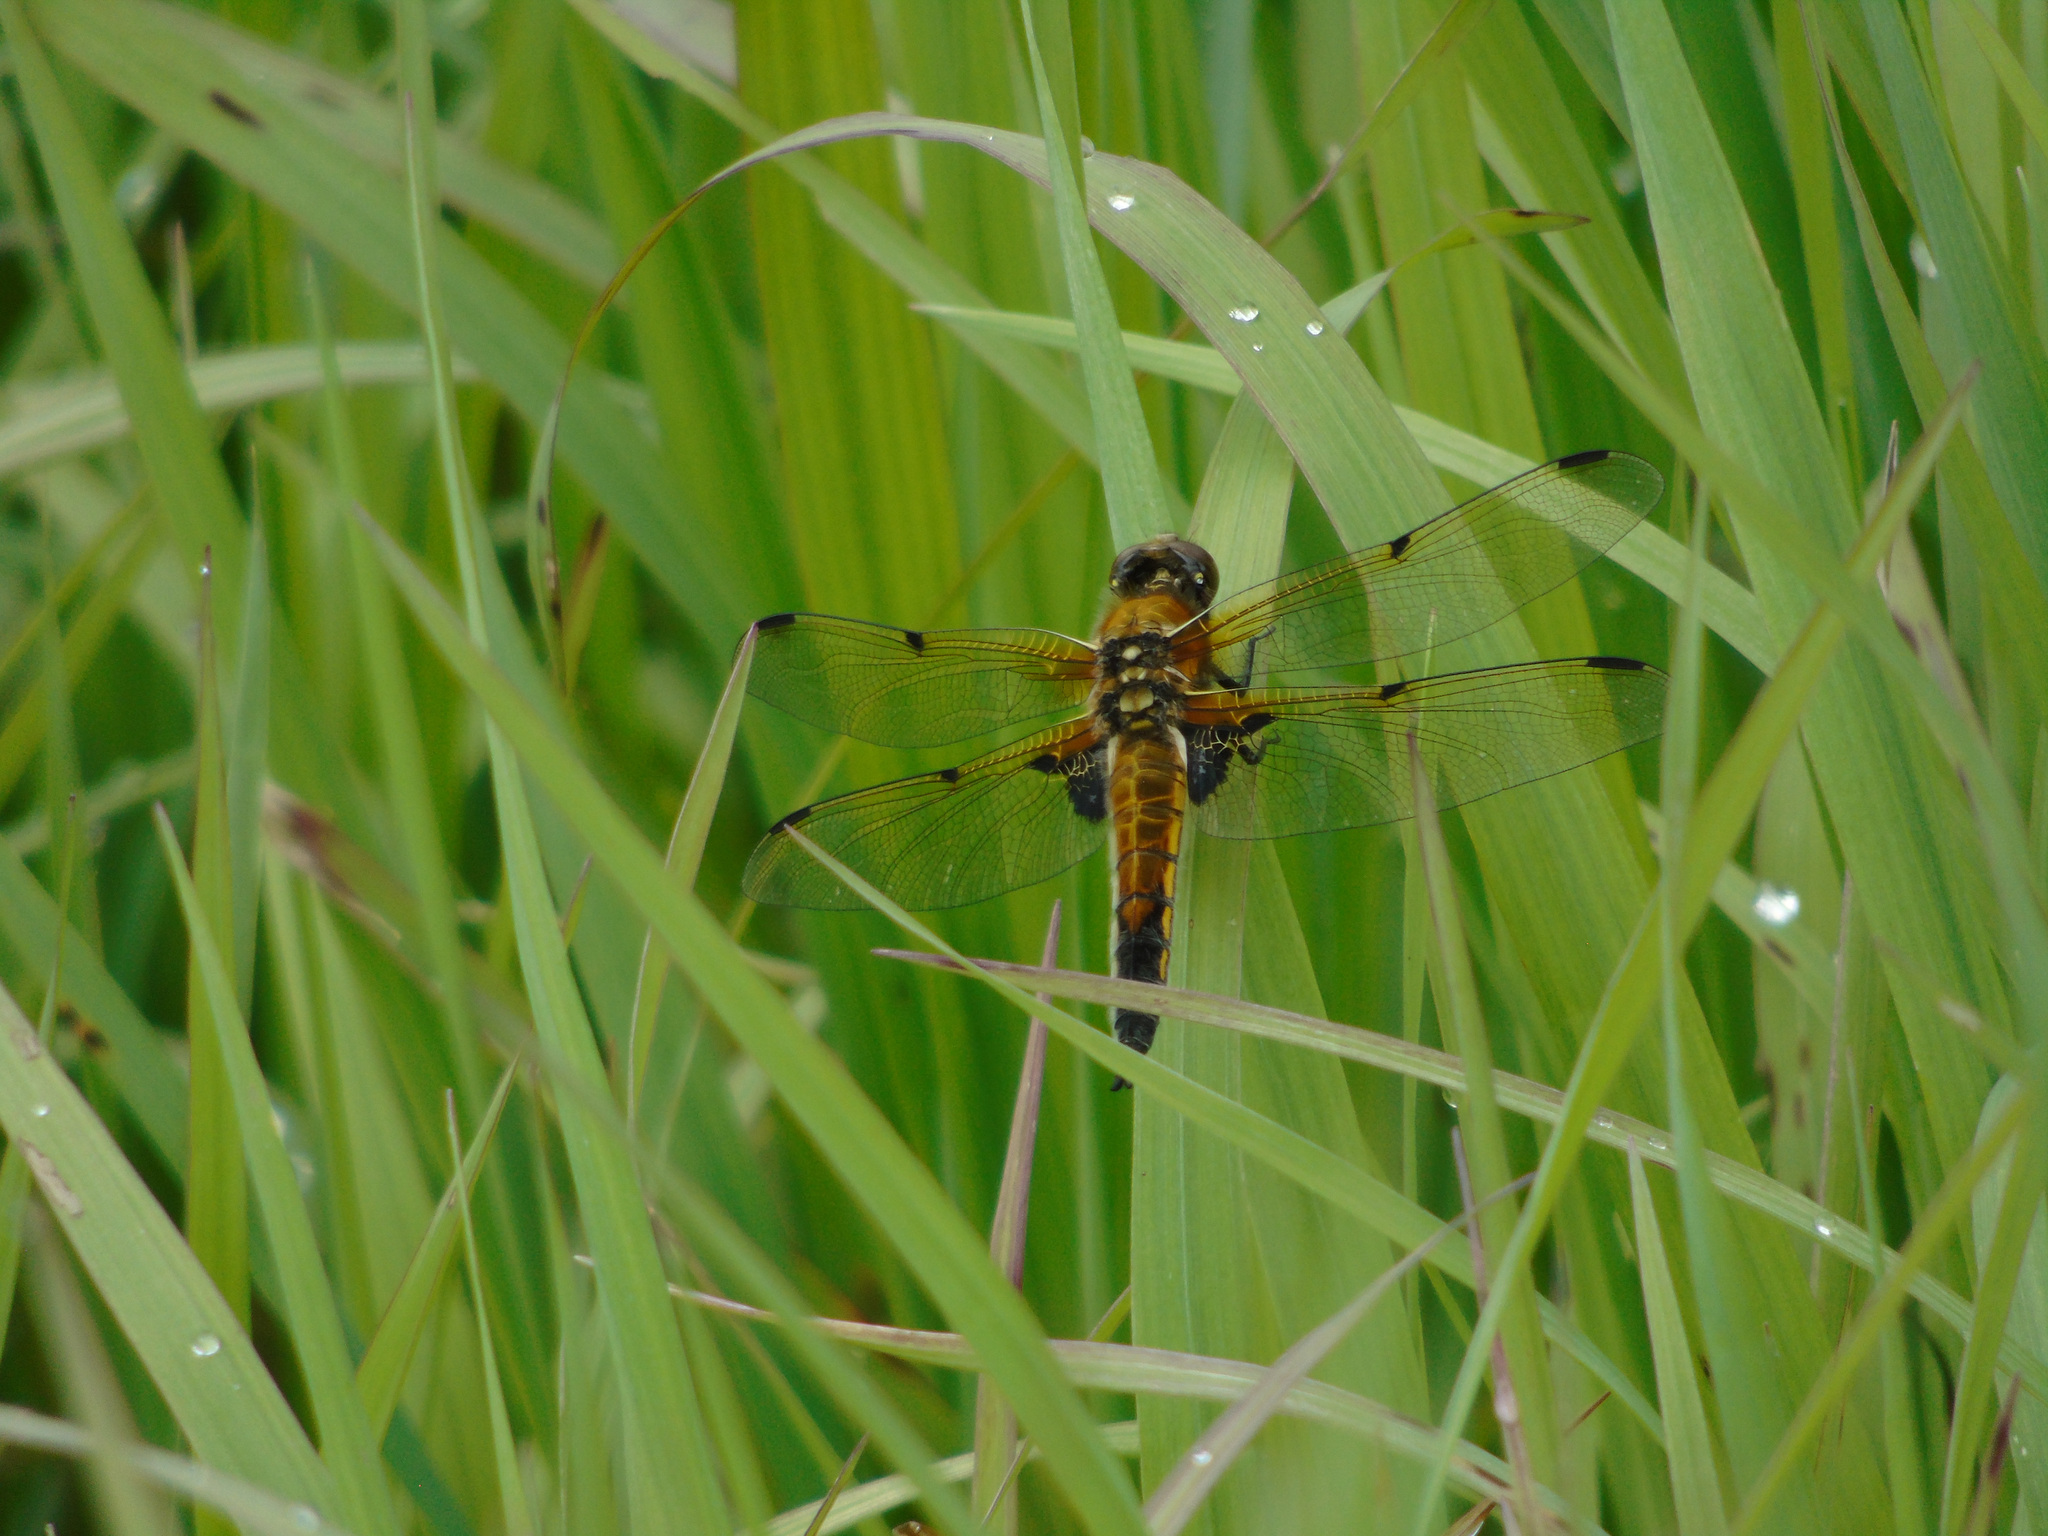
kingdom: Animalia
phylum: Arthropoda
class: Insecta
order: Odonata
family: Libellulidae
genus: Libellula
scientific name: Libellula quadrimaculata
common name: Four-spotted chaser
